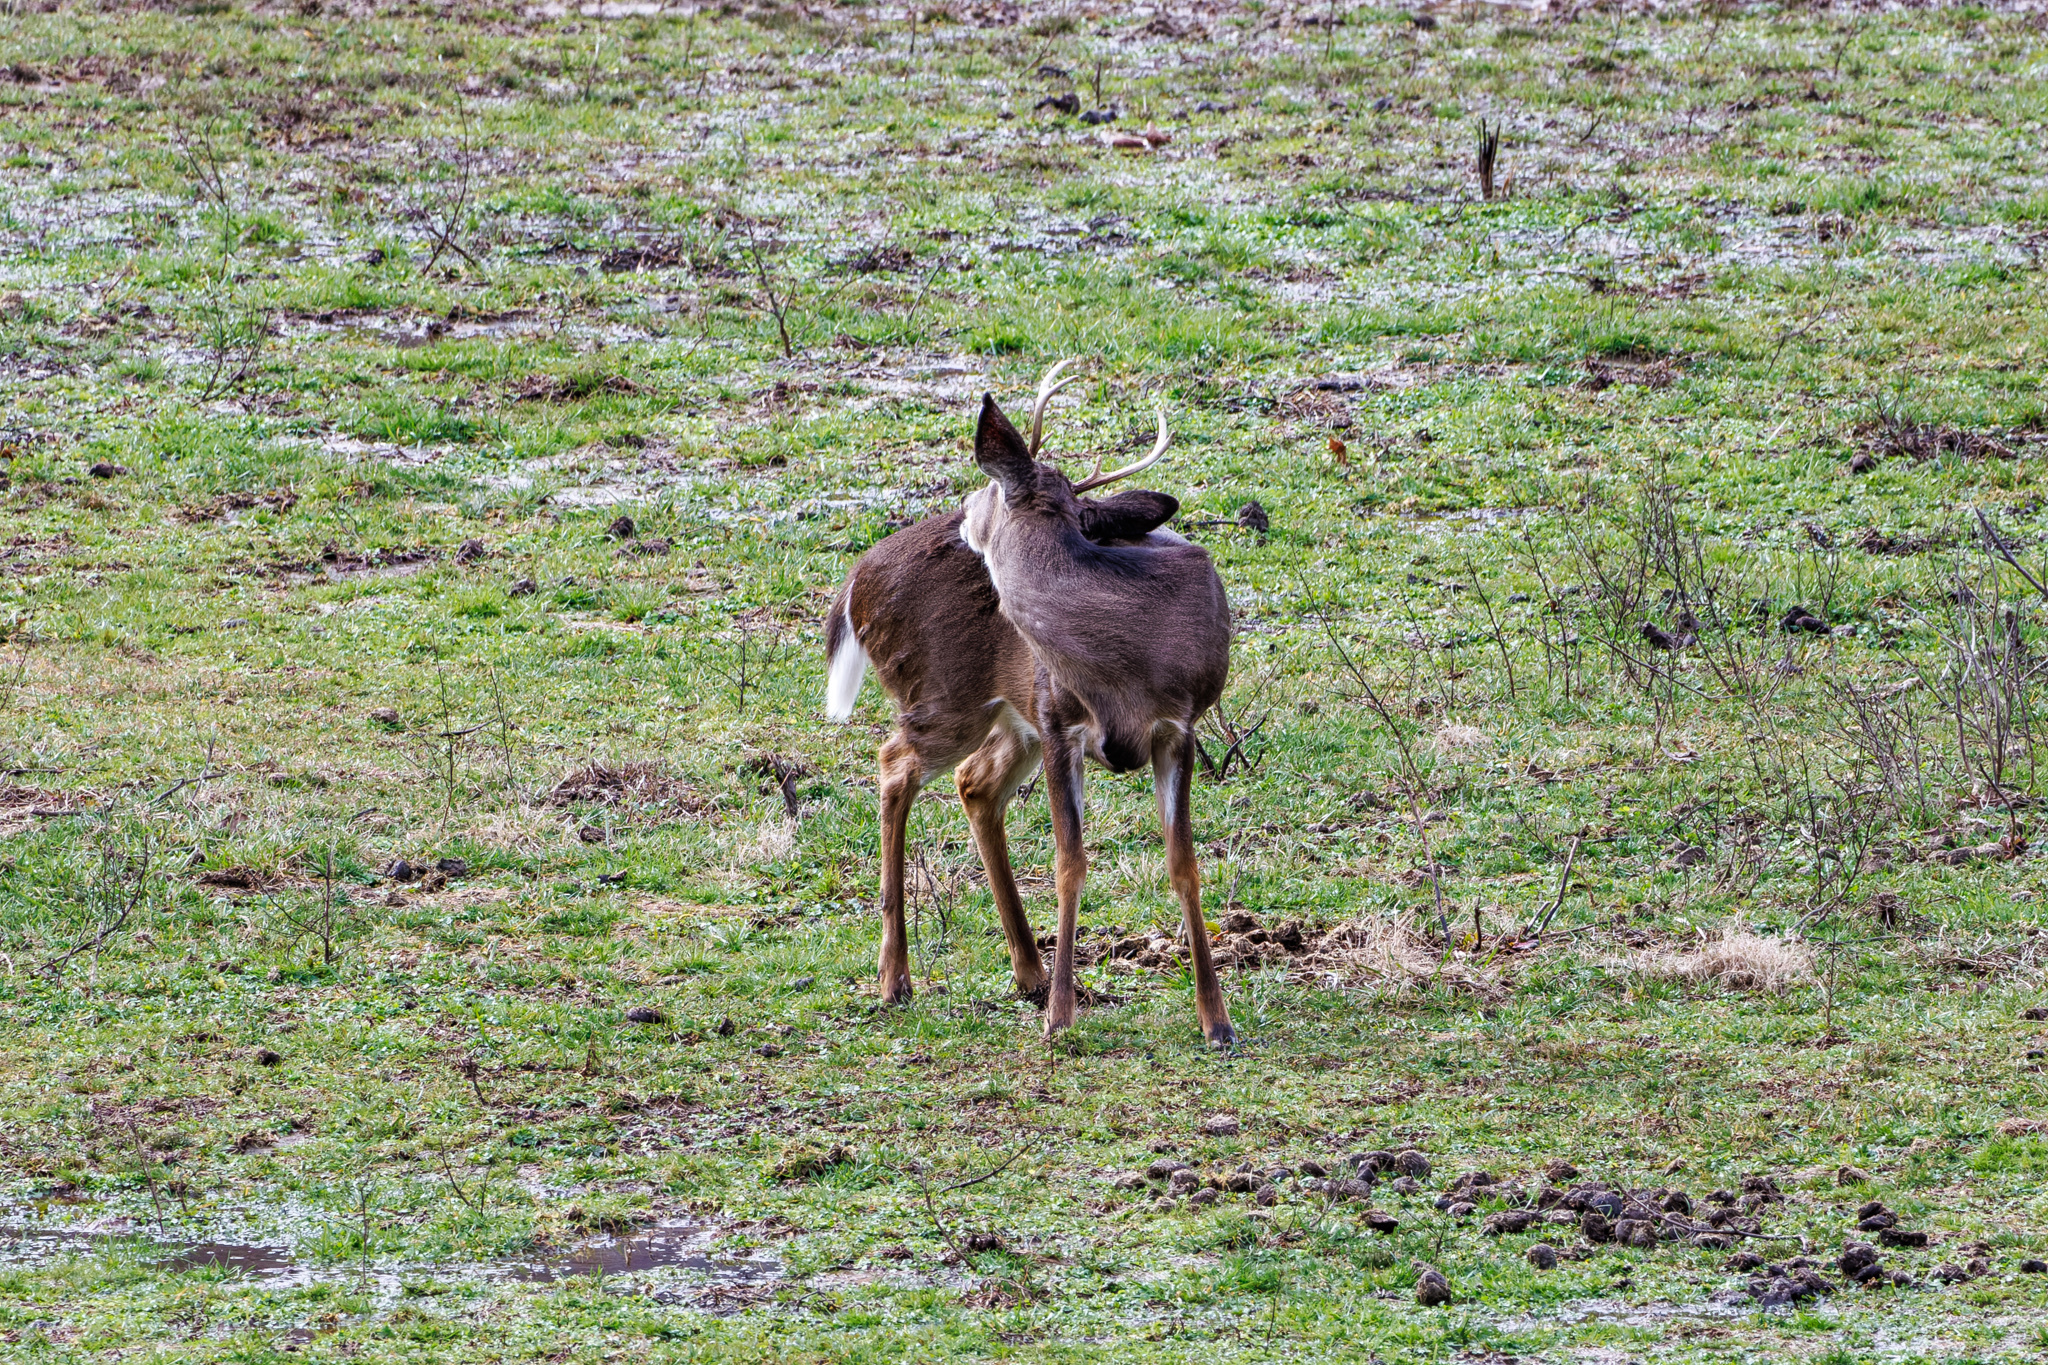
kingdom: Animalia
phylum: Chordata
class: Mammalia
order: Artiodactyla
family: Cervidae
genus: Odocoileus
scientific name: Odocoileus virginianus
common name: White-tailed deer
